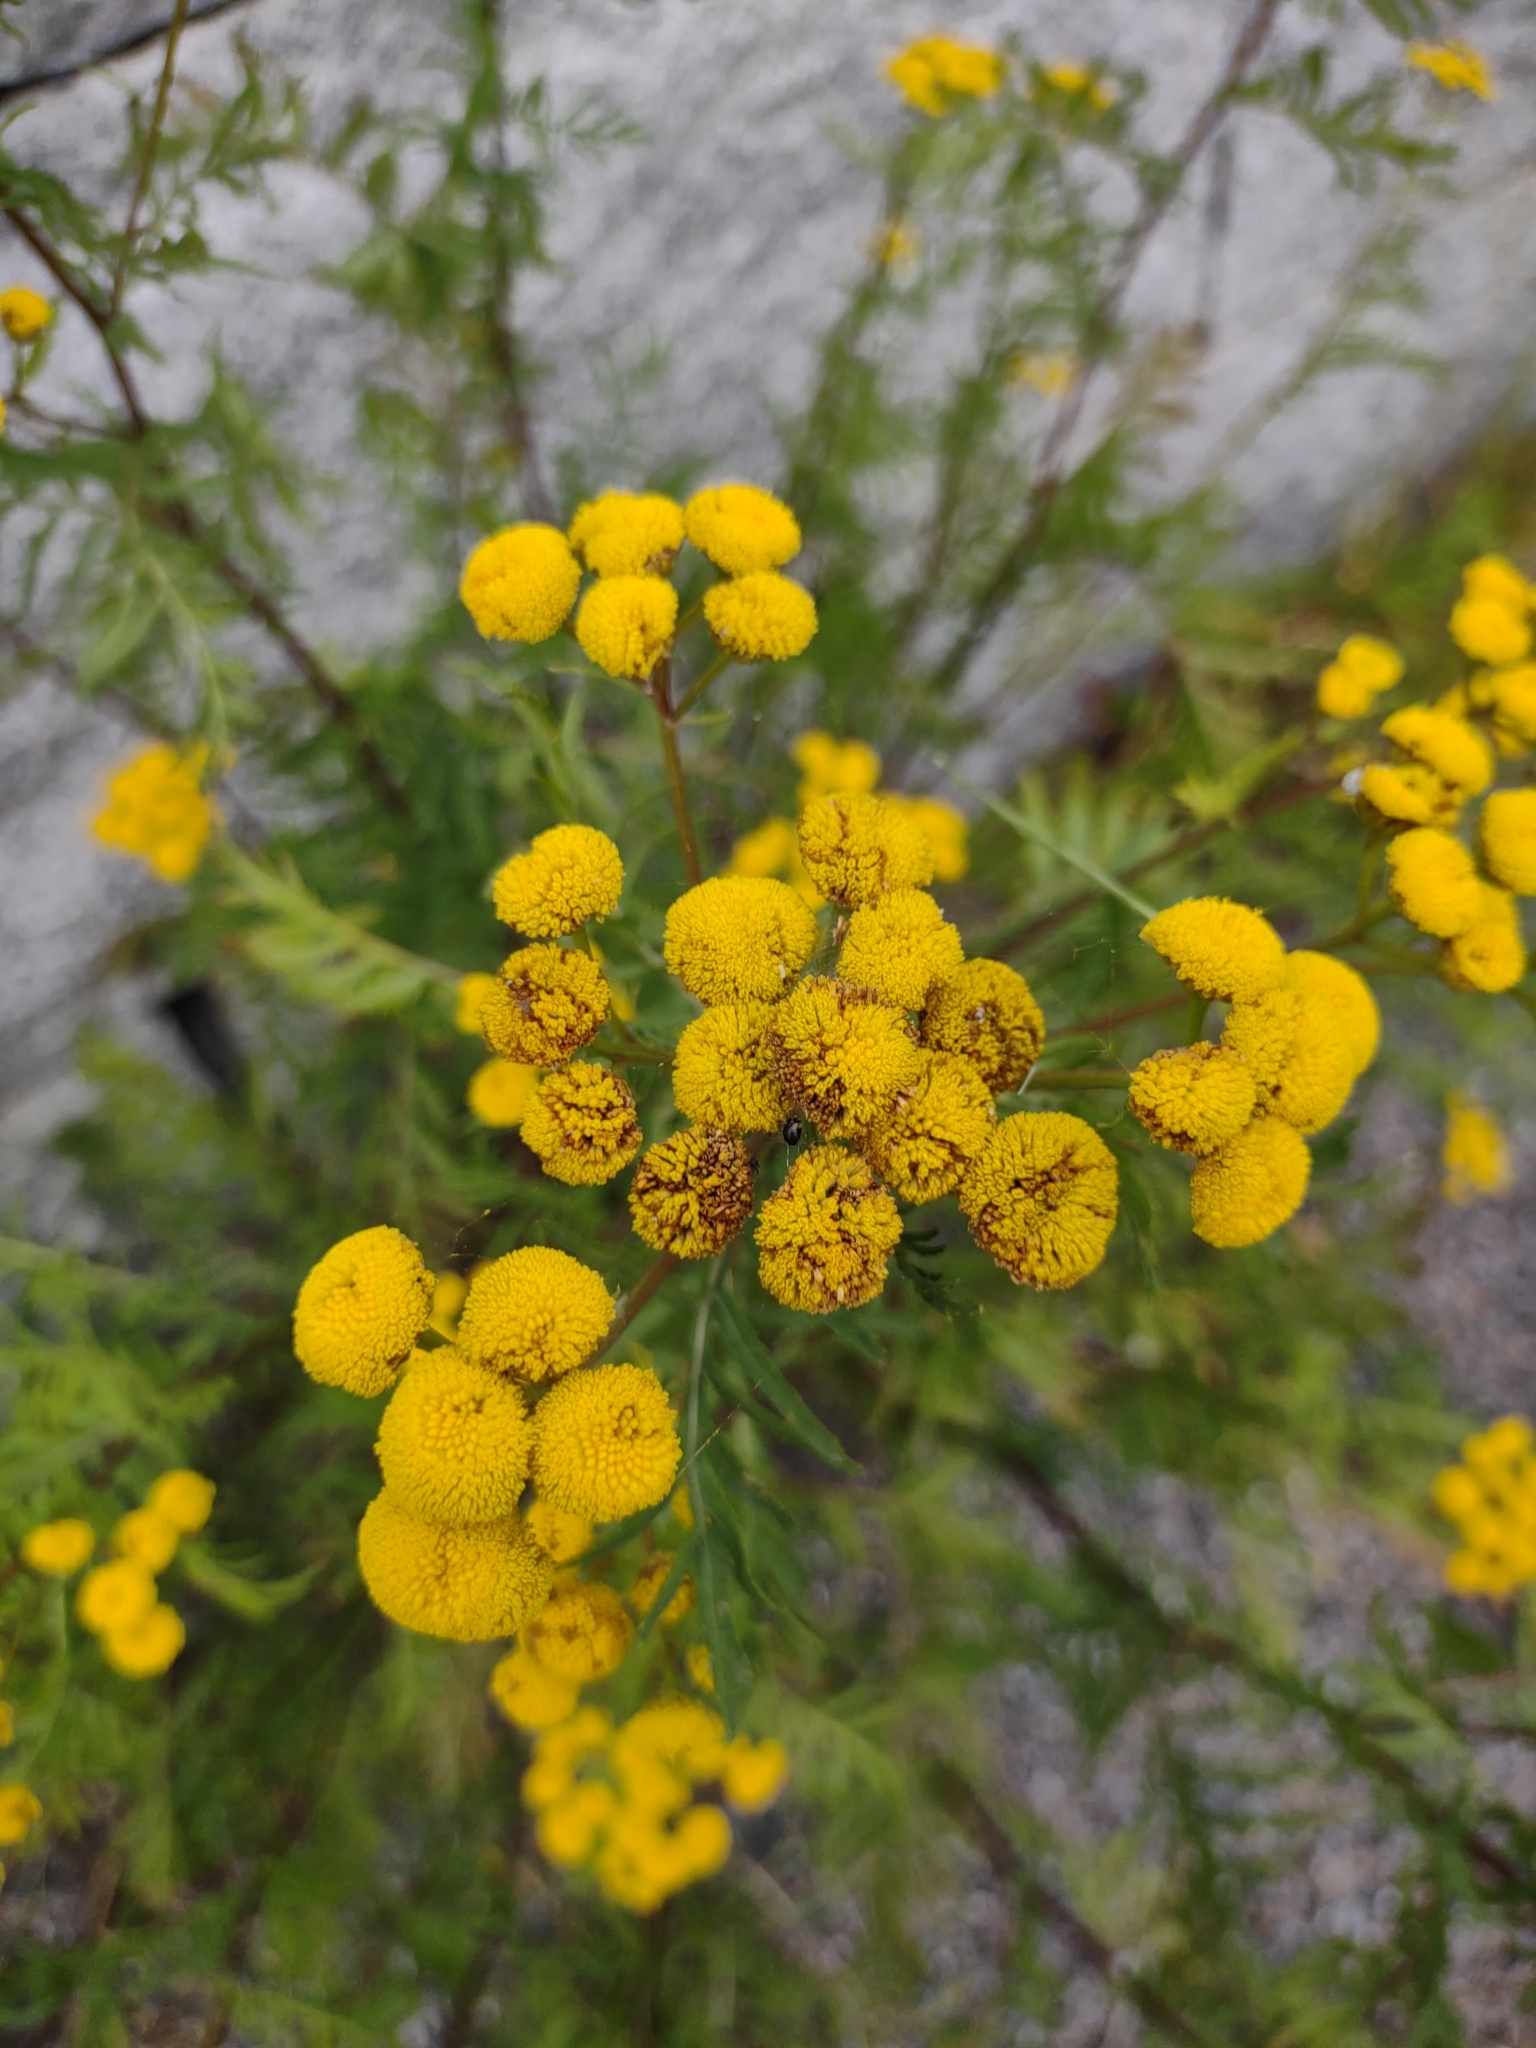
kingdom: Plantae
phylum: Tracheophyta
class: Magnoliopsida
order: Asterales
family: Asteraceae
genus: Tanacetum
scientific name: Tanacetum vulgare
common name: Common tansy
